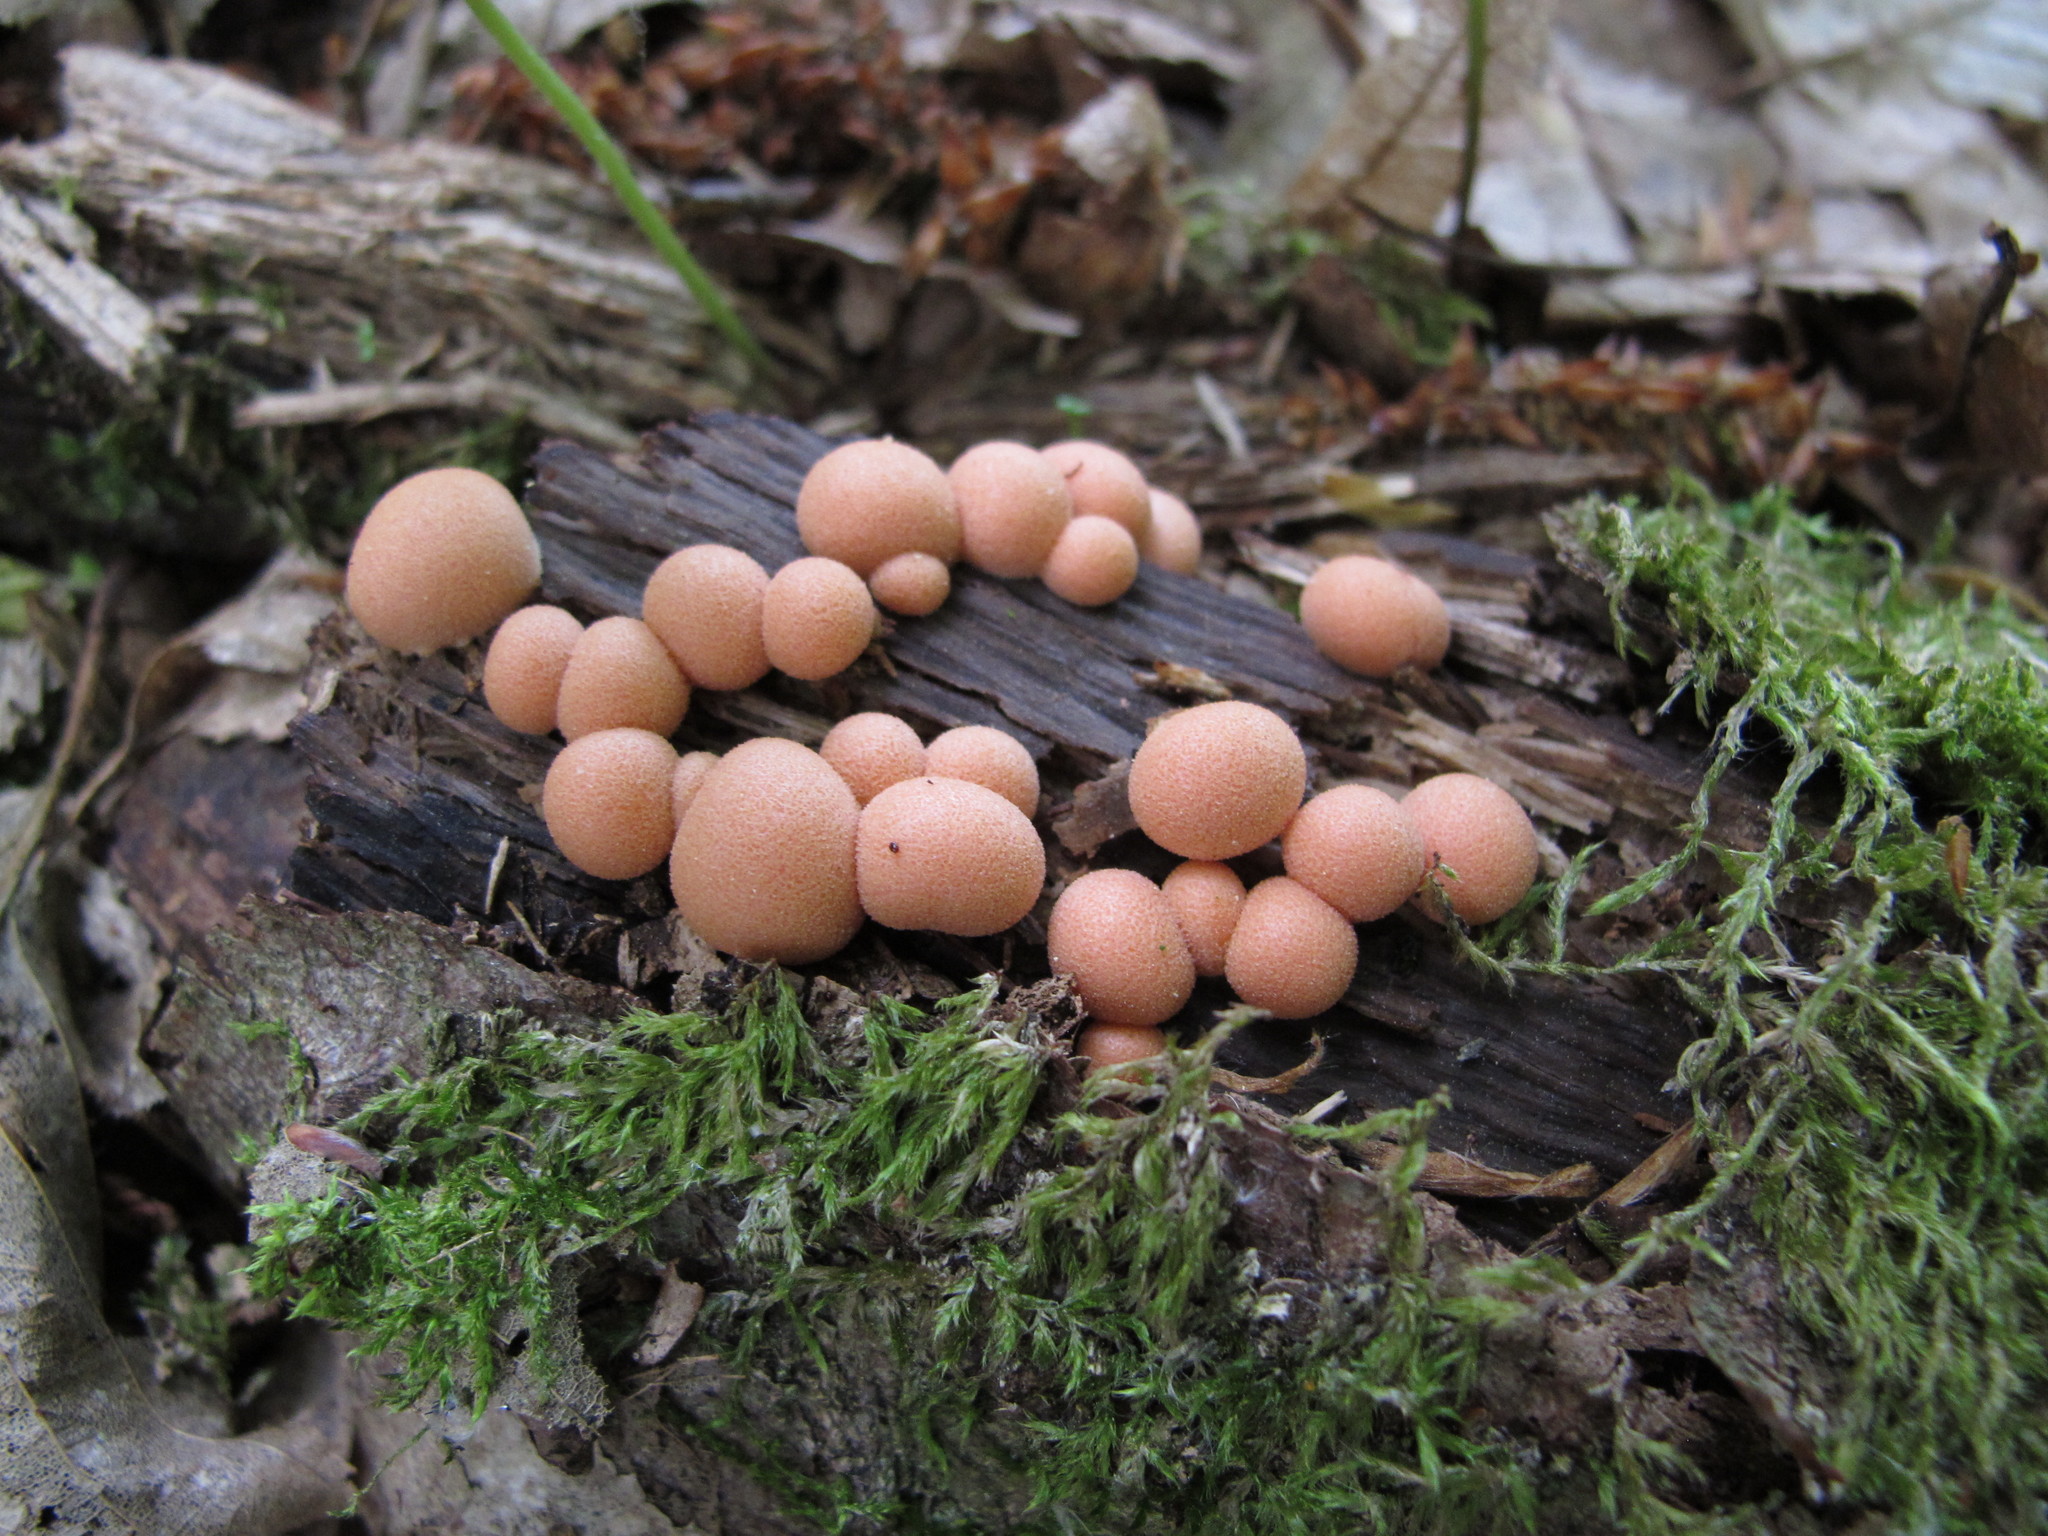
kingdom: Protozoa
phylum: Mycetozoa
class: Myxomycetes
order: Cribrariales
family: Tubiferaceae
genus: Lycogala
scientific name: Lycogala epidendrum
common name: Wolf's milk
